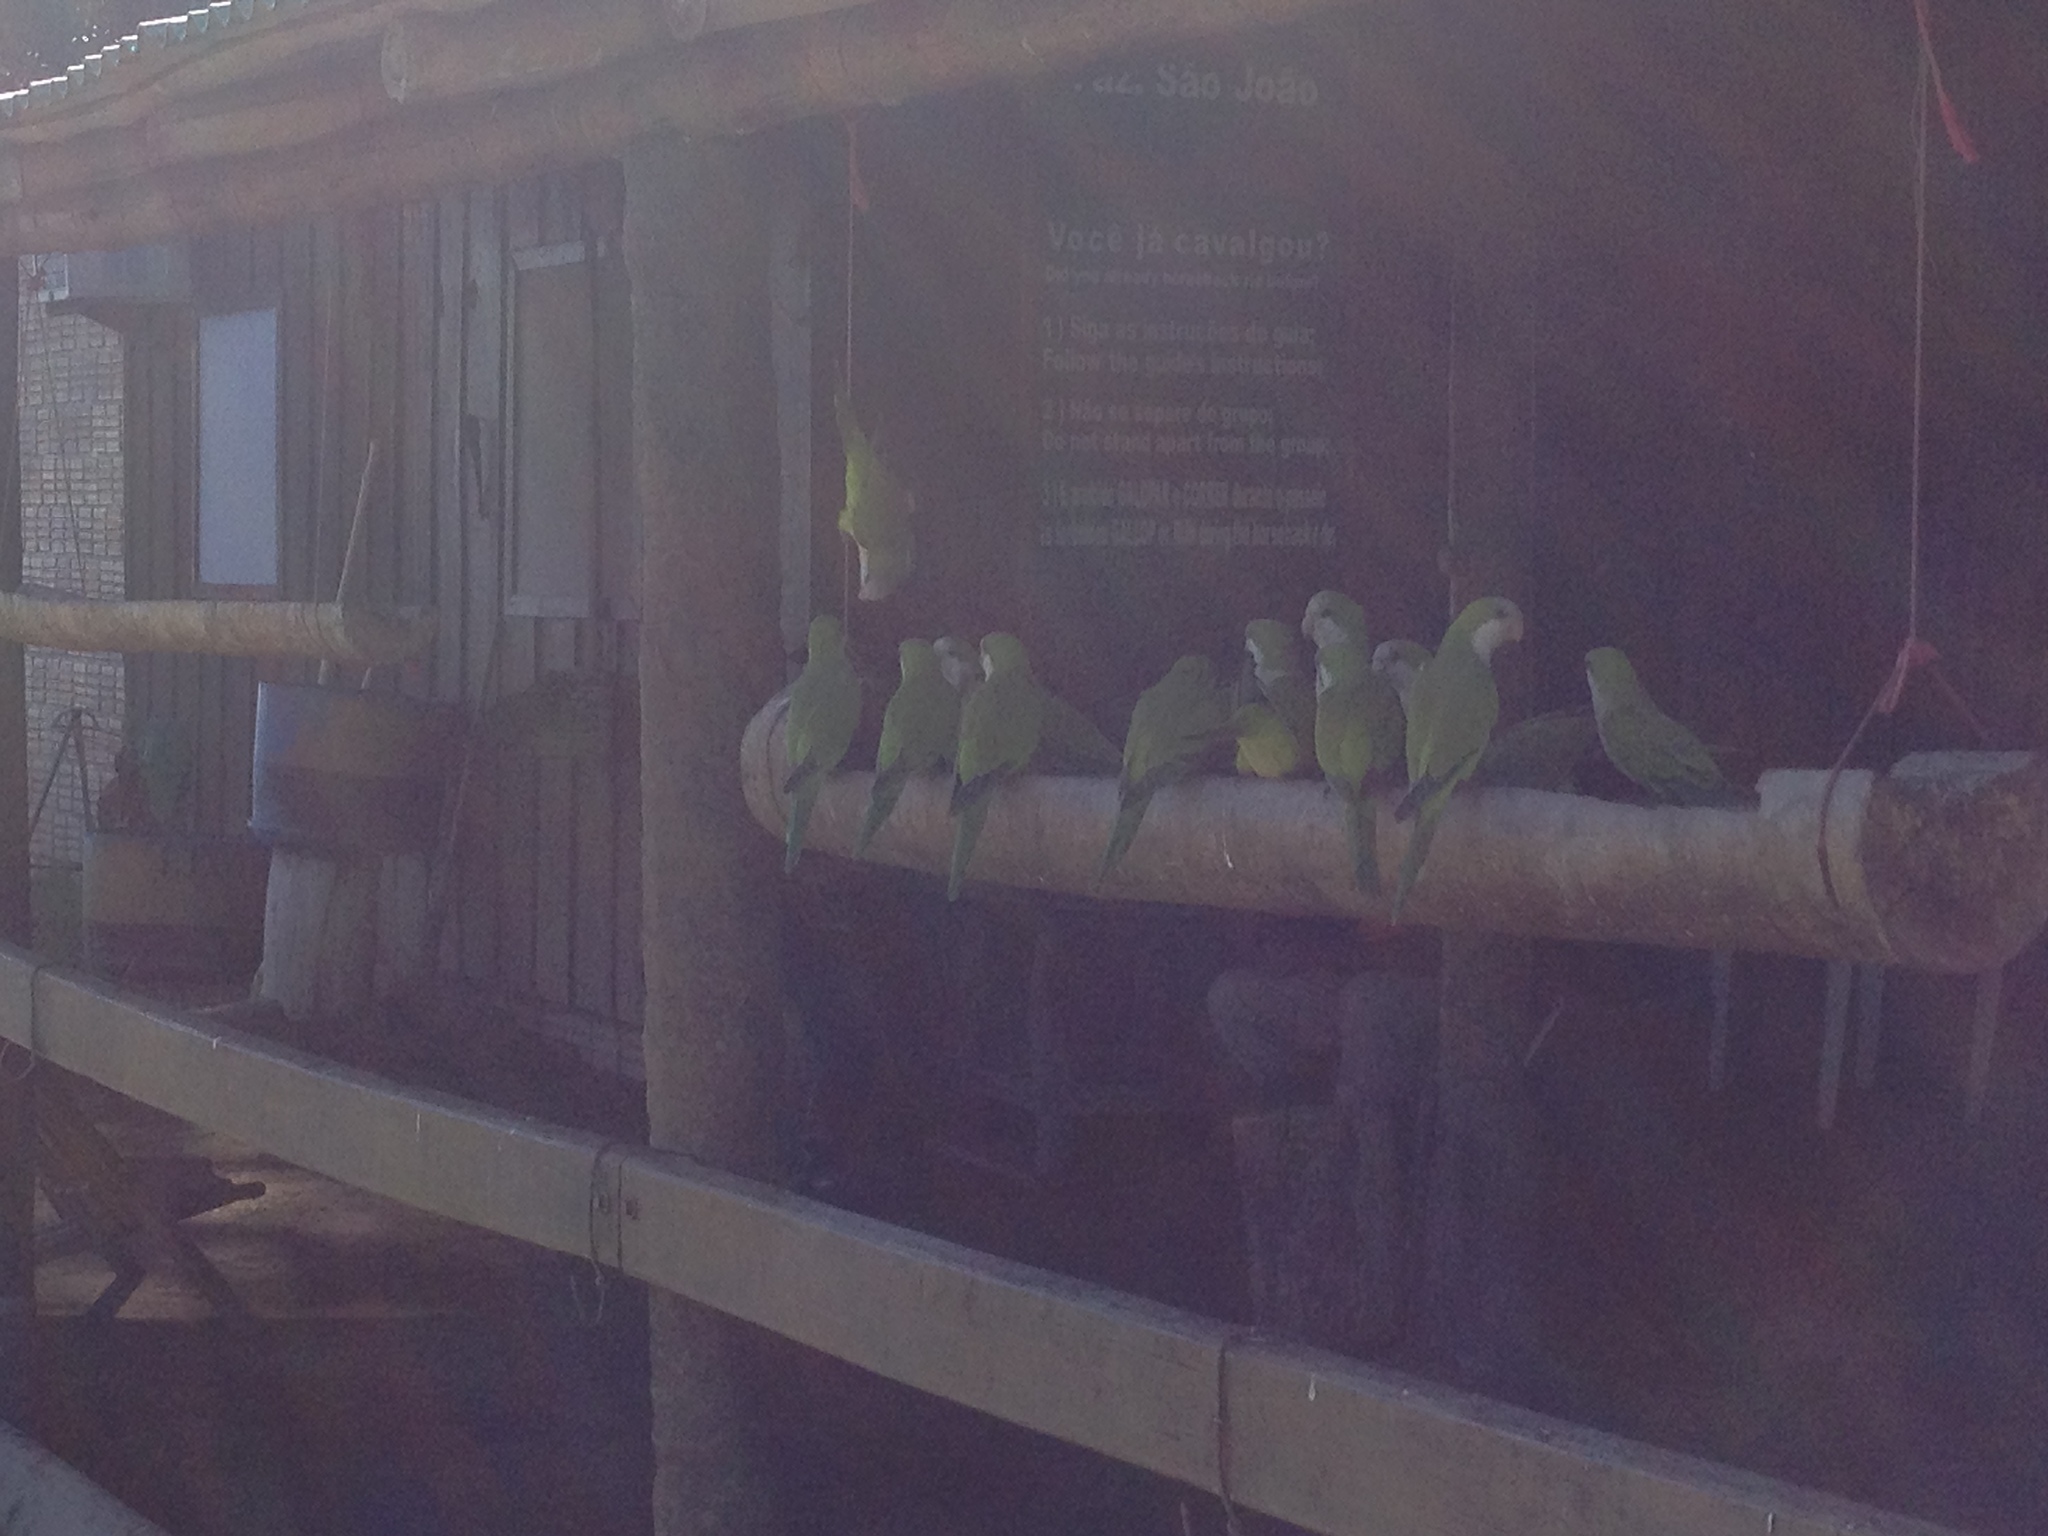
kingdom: Animalia
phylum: Chordata
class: Aves
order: Psittaciformes
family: Psittacidae
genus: Myiopsitta
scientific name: Myiopsitta monachus
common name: Monk parakeet
